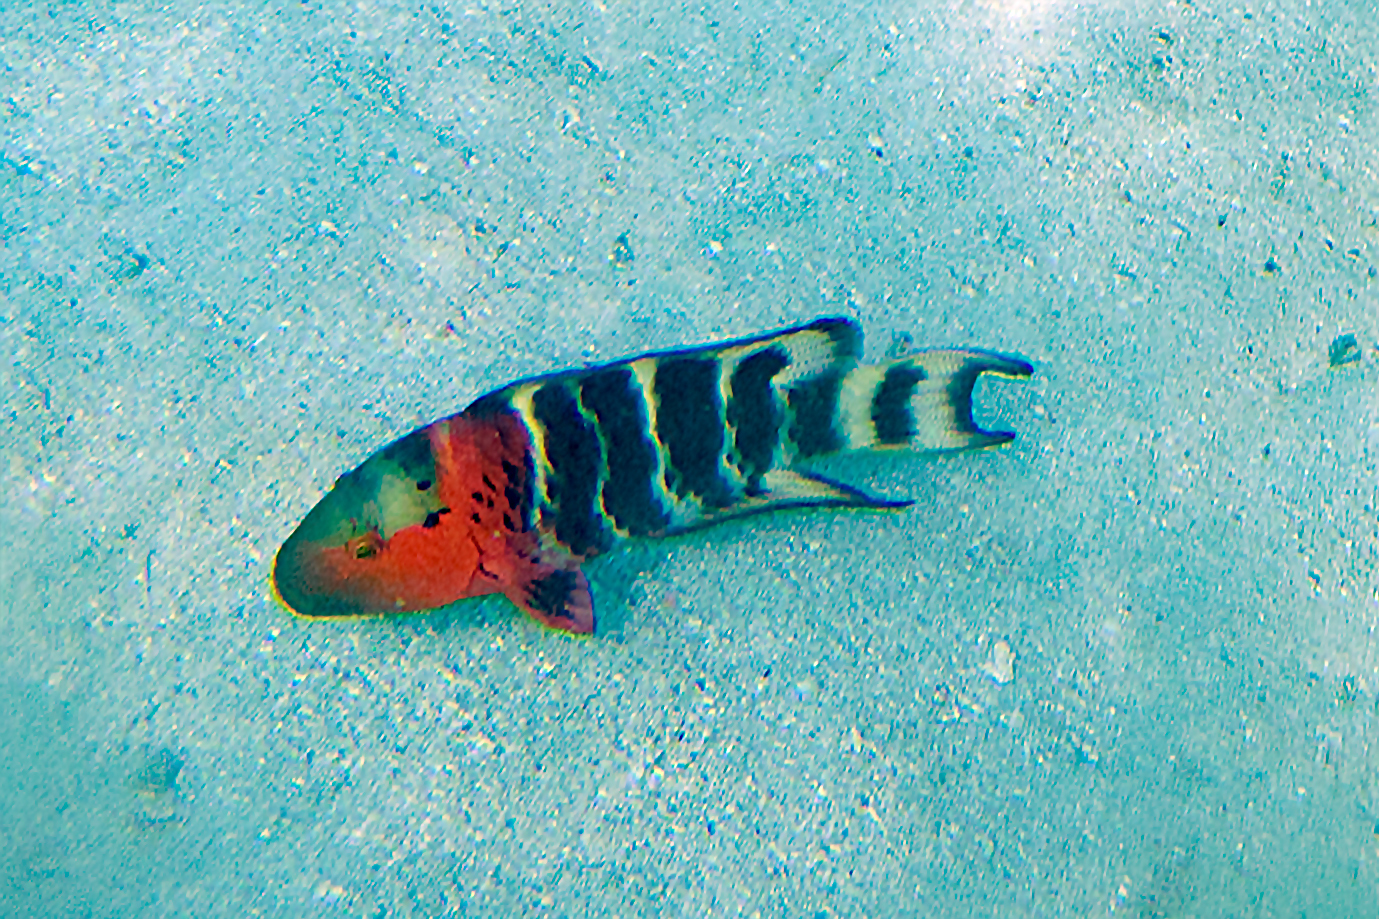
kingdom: Animalia
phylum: Chordata
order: Perciformes
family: Labridae
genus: Cheilinus
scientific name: Cheilinus fasciatus
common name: Red-breasted wrasse
